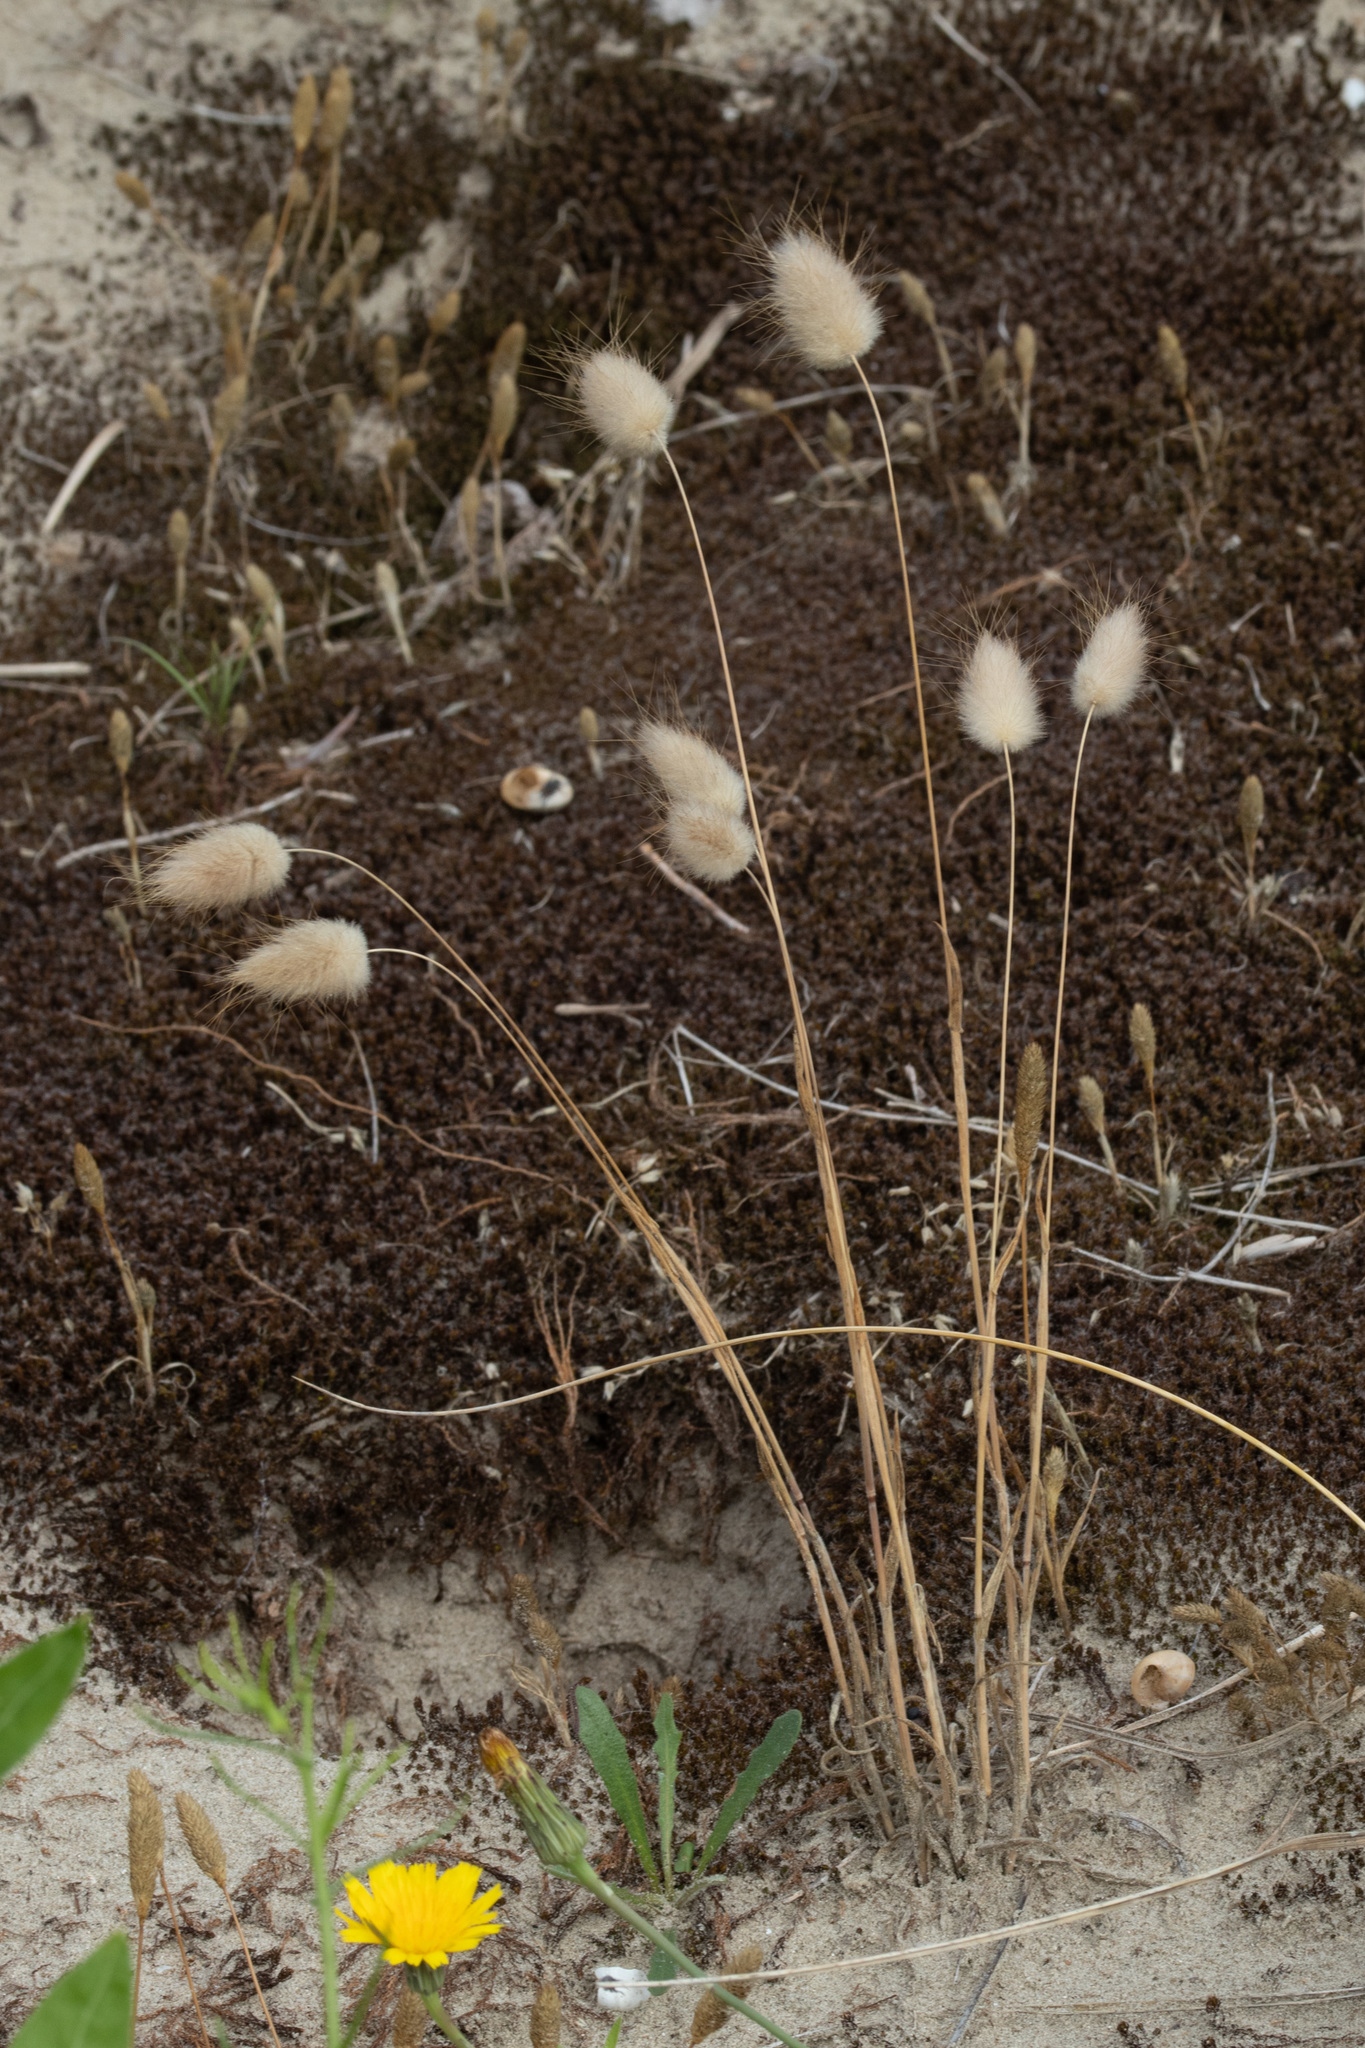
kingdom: Plantae
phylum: Tracheophyta
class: Liliopsida
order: Poales
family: Poaceae
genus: Lagurus
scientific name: Lagurus ovatus
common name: Hare's-tail
